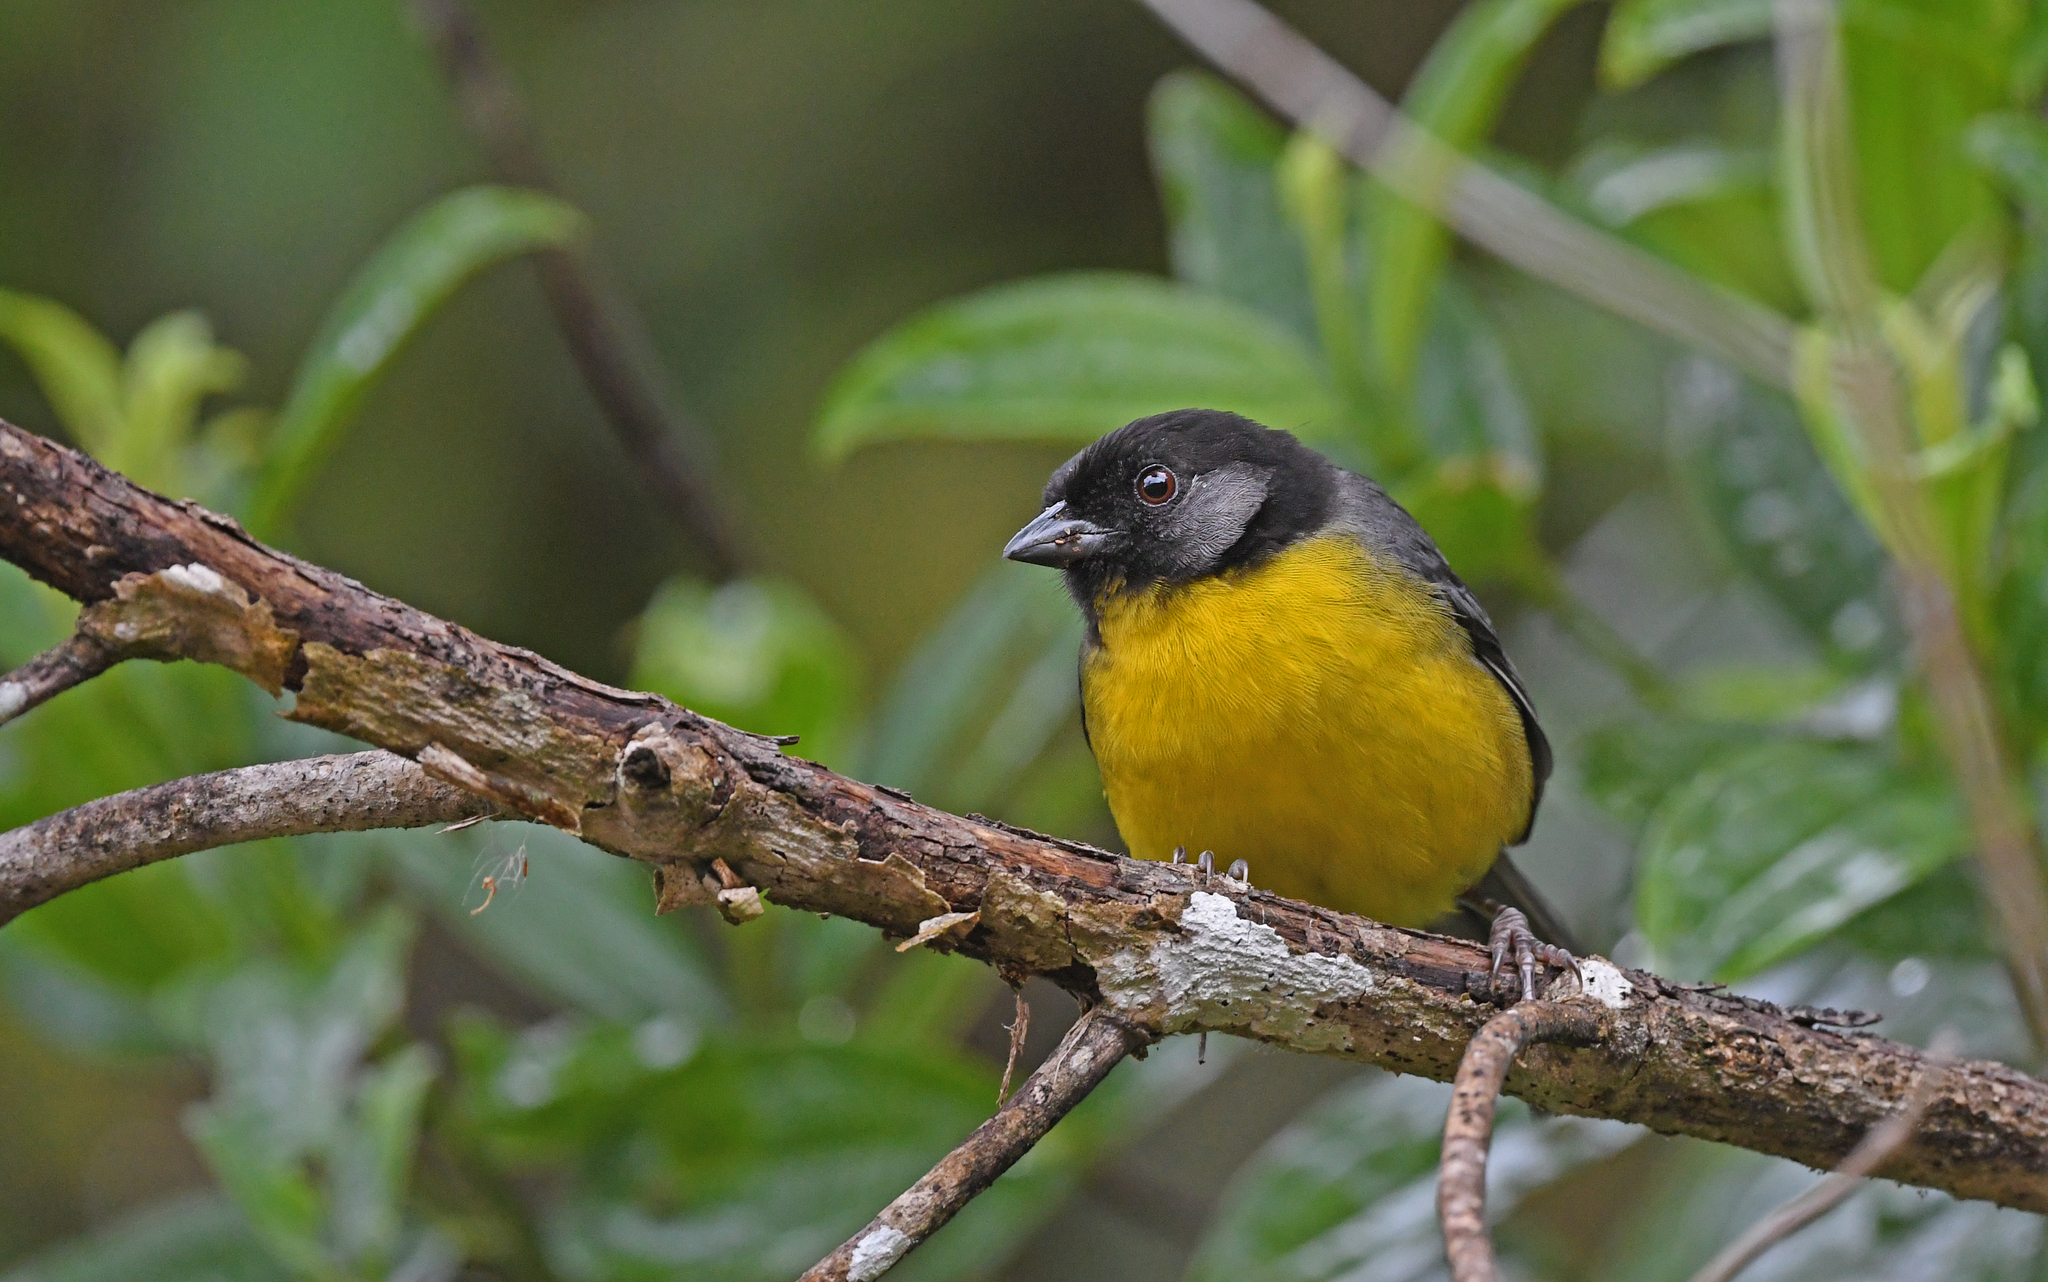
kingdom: Animalia
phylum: Chordata
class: Aves
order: Passeriformes
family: Passerellidae
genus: Atlapetes
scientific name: Atlapetes melanocephalus
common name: Santa marta brush-finch
